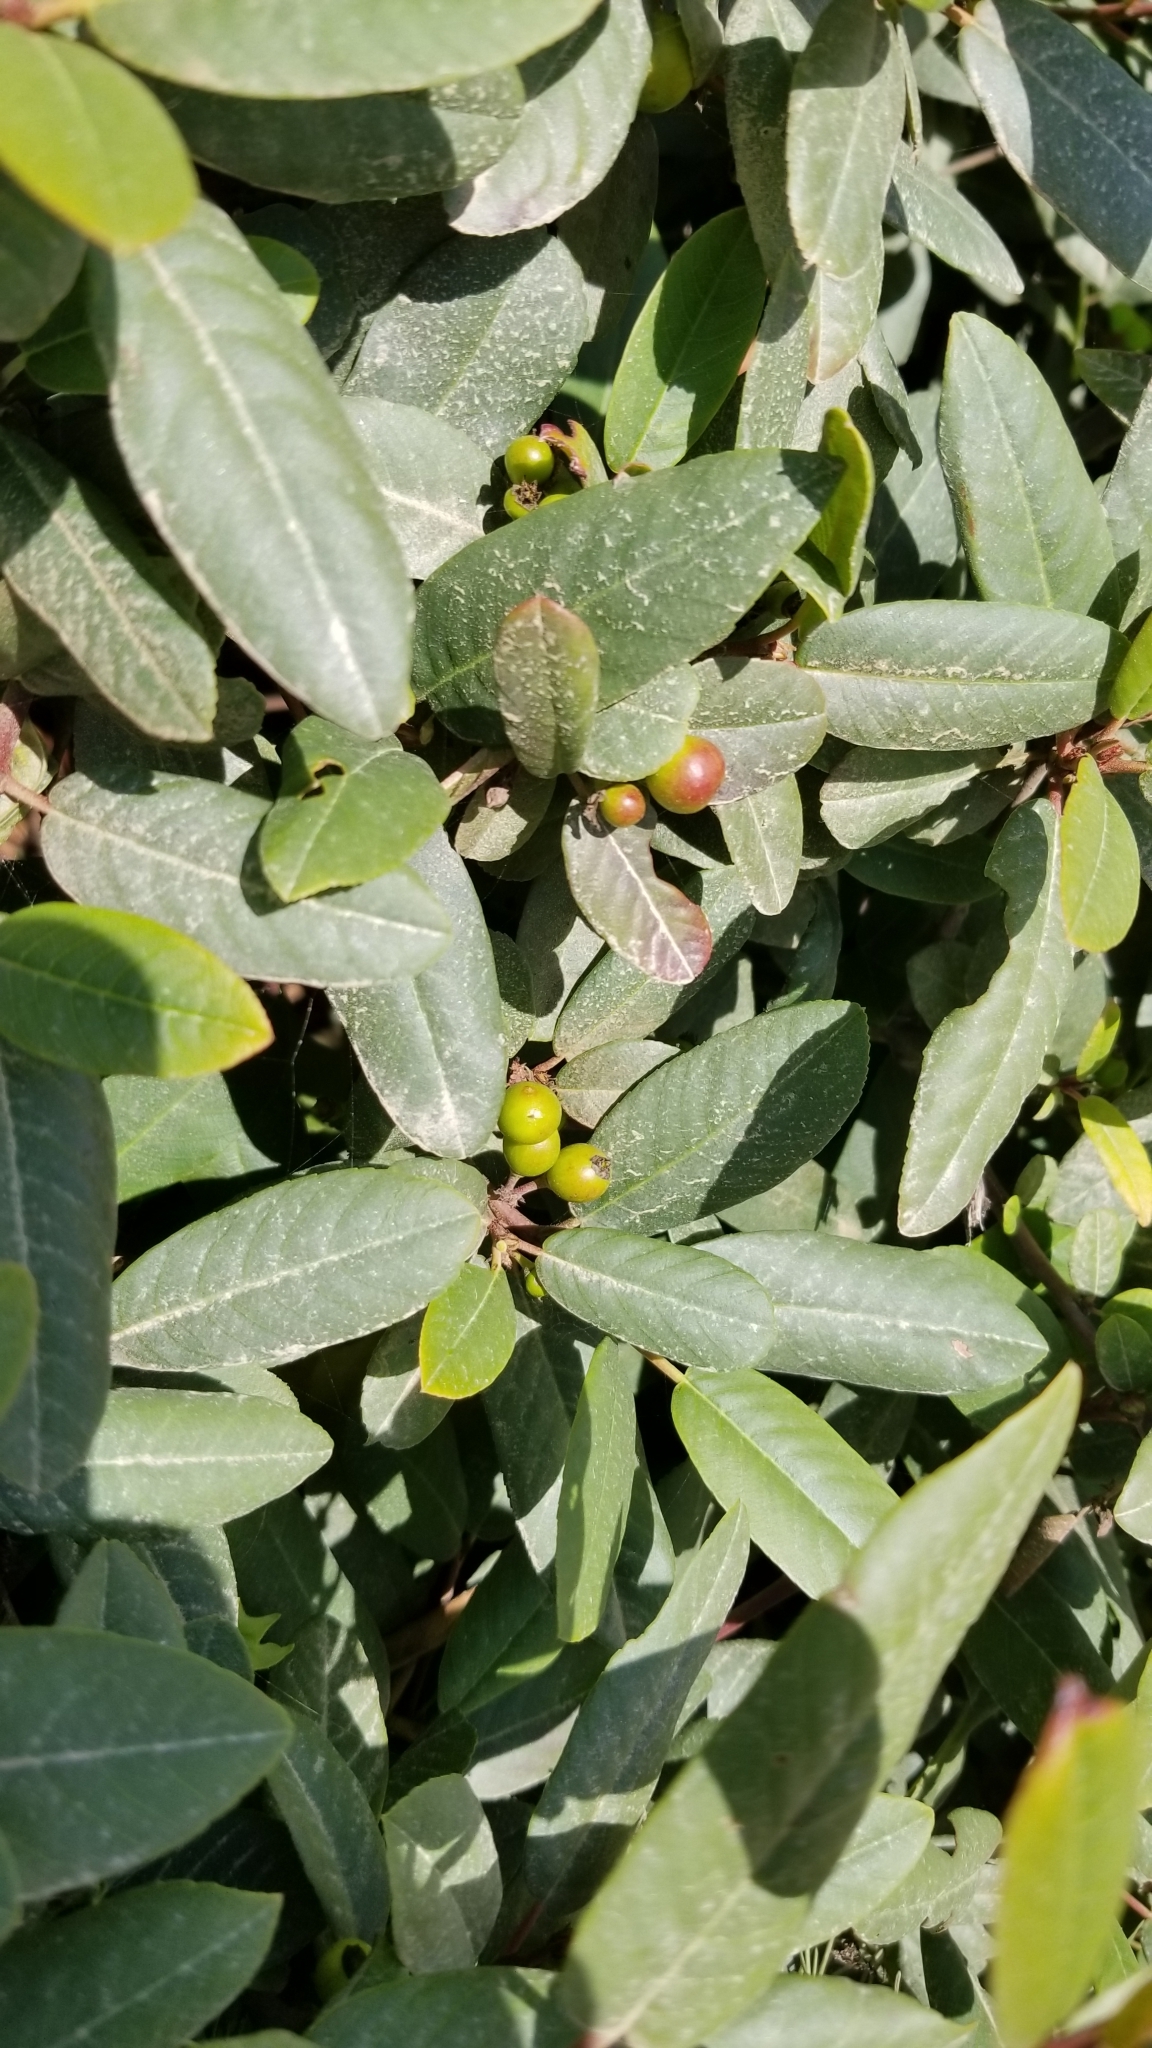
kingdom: Plantae
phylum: Tracheophyta
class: Magnoliopsida
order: Rosales
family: Rhamnaceae
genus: Frangula
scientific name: Frangula californica
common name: California buckthorn
